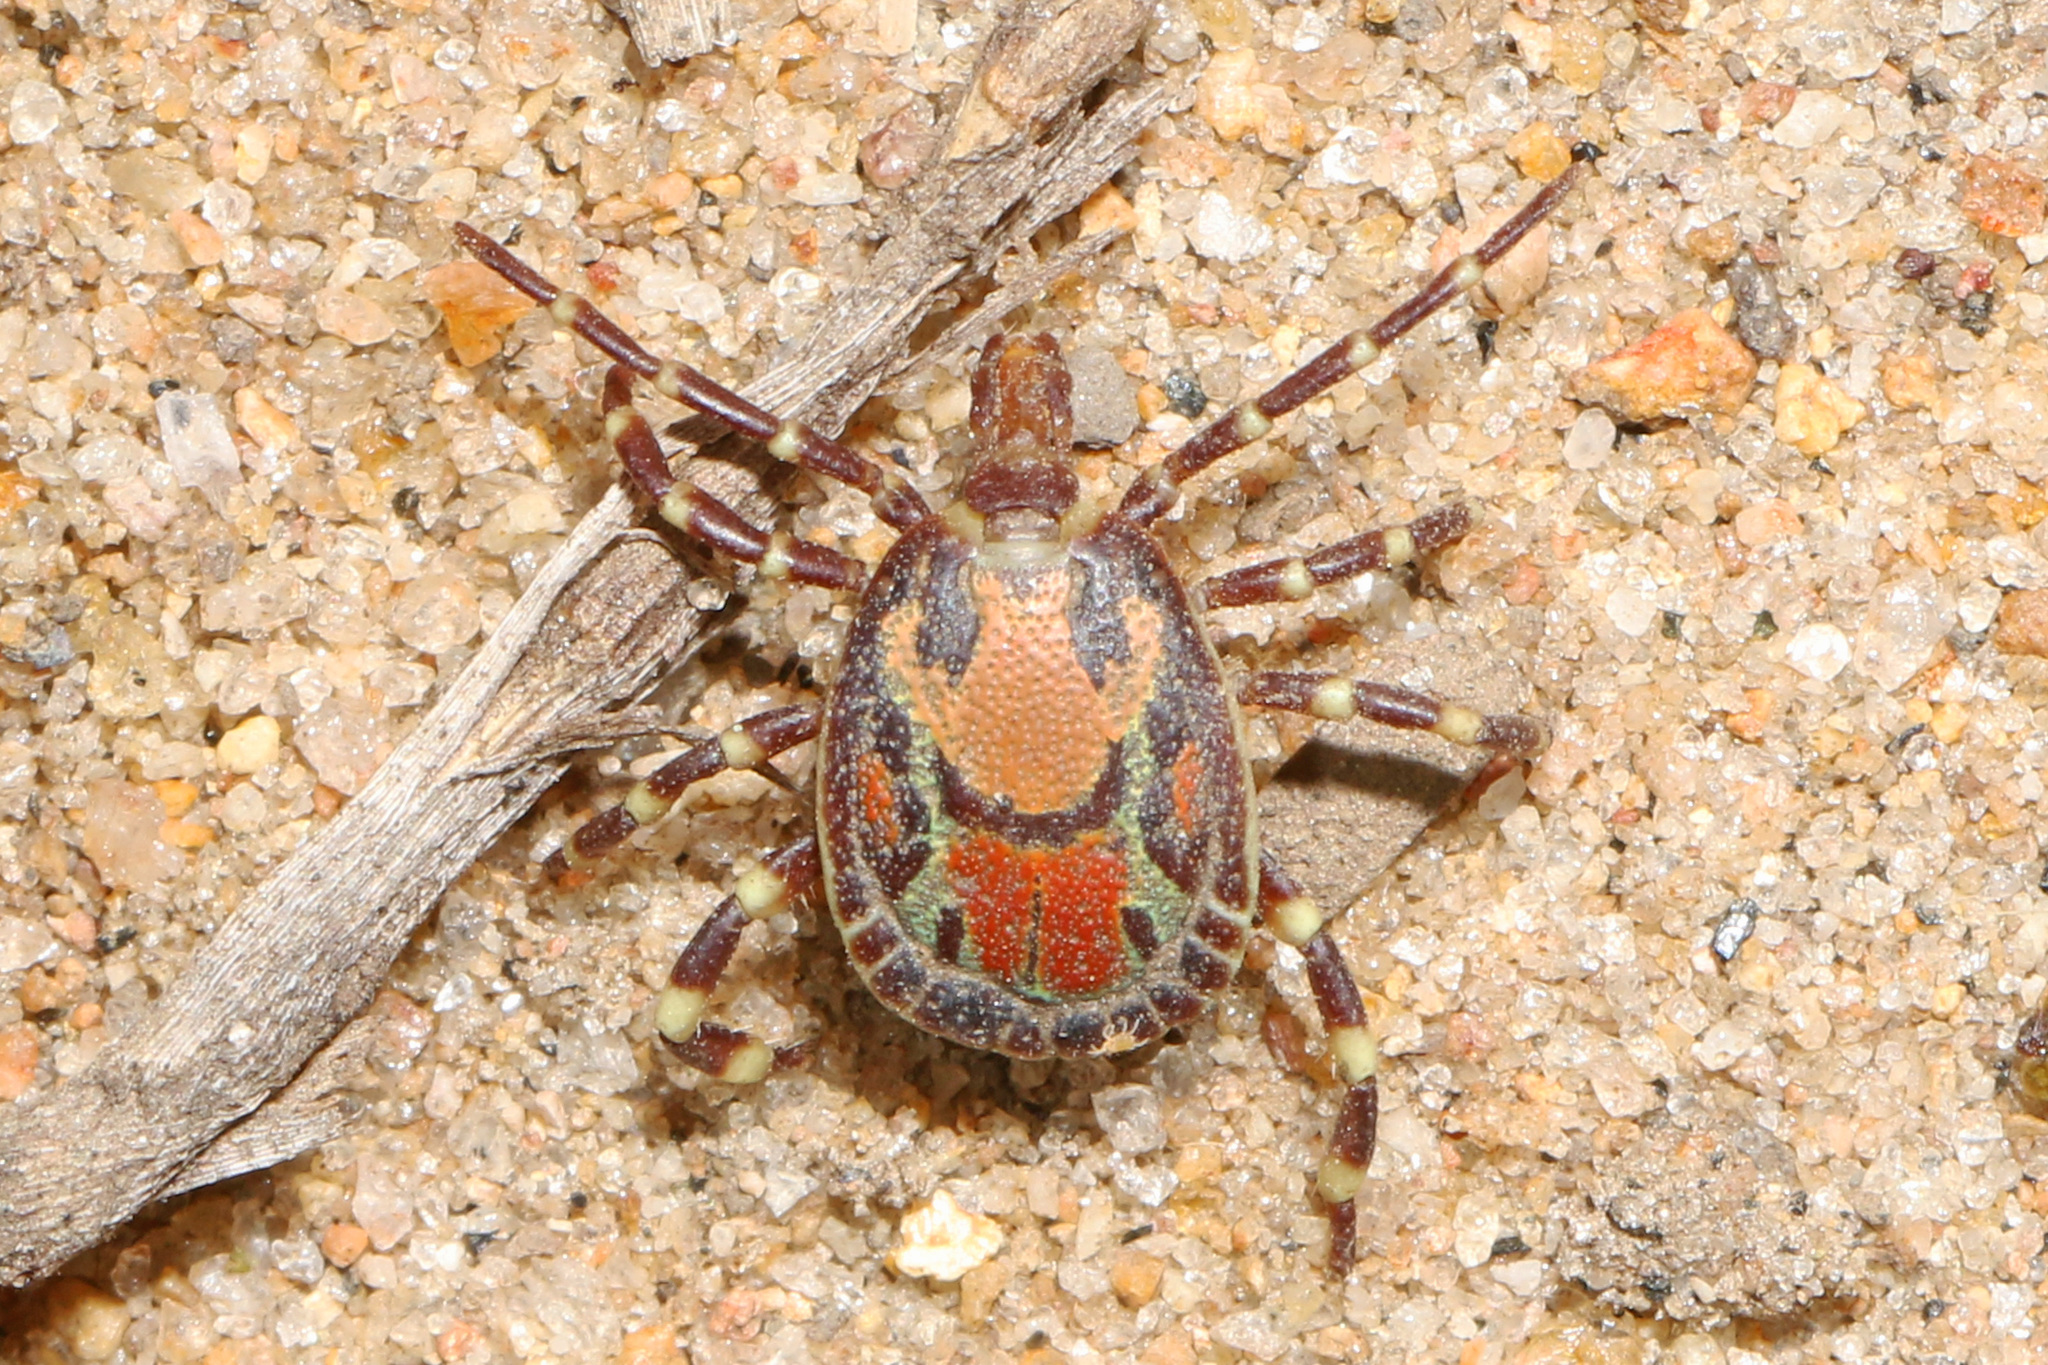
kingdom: Animalia
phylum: Arthropoda
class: Arachnida
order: Ixodida
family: Ixodidae
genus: Amblyomma
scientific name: Amblyomma pomposum
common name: Angolan bont tick
